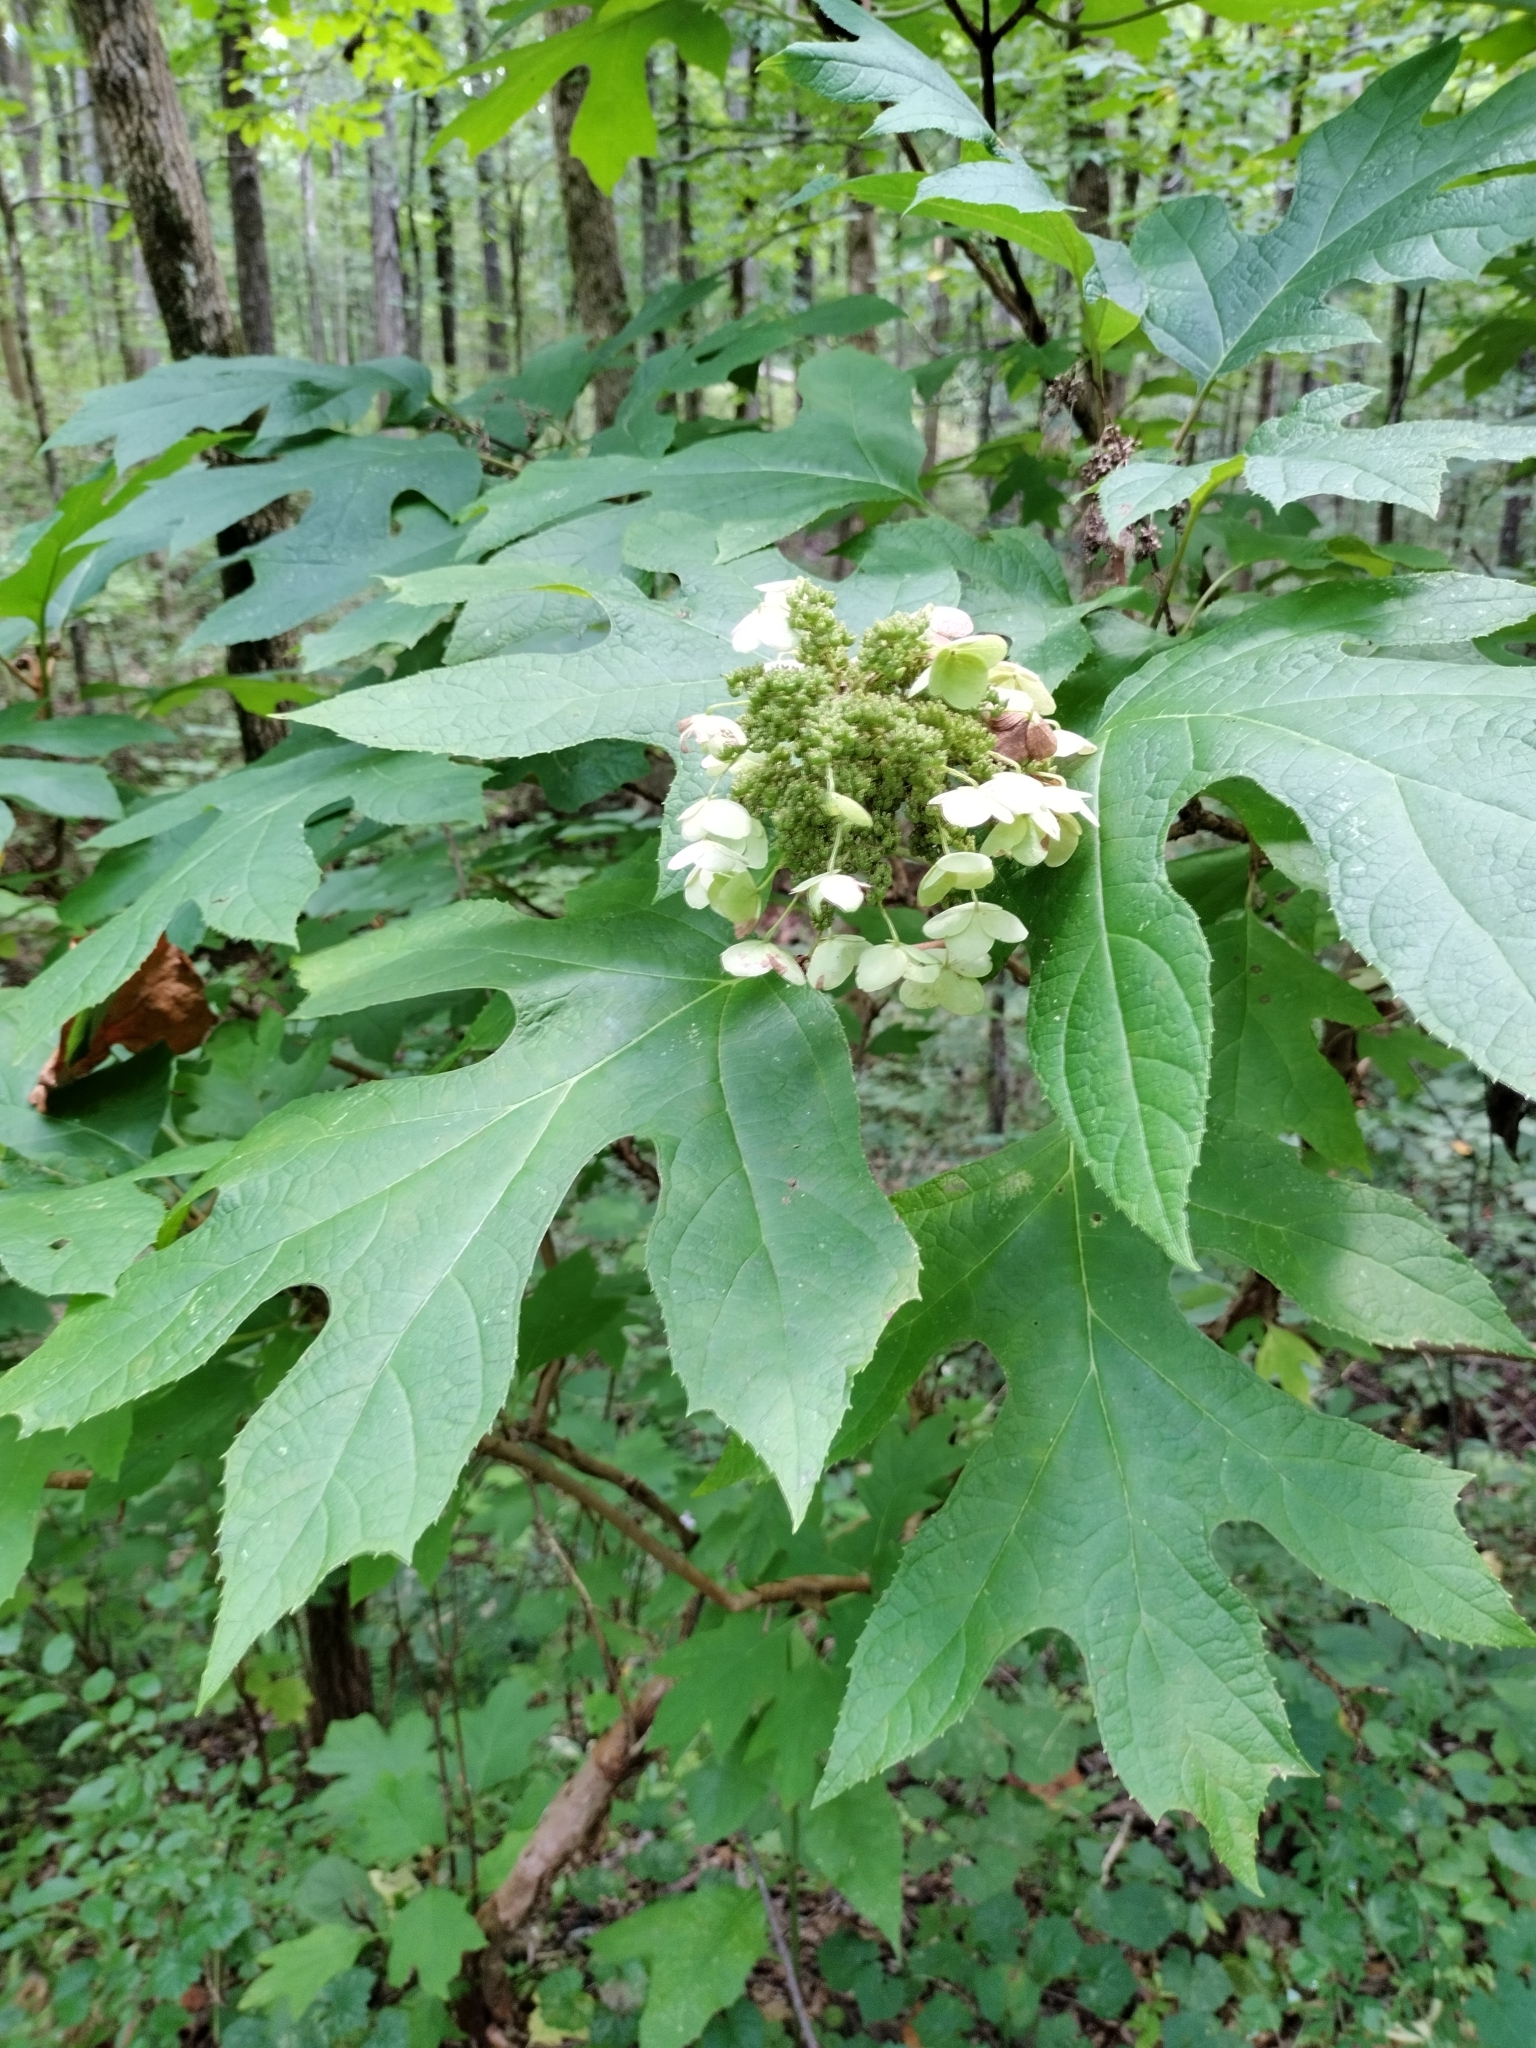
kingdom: Plantae
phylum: Tracheophyta
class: Magnoliopsida
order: Cornales
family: Hydrangeaceae
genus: Hydrangea
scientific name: Hydrangea quercifolia
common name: Oak-leaf hydrangea
